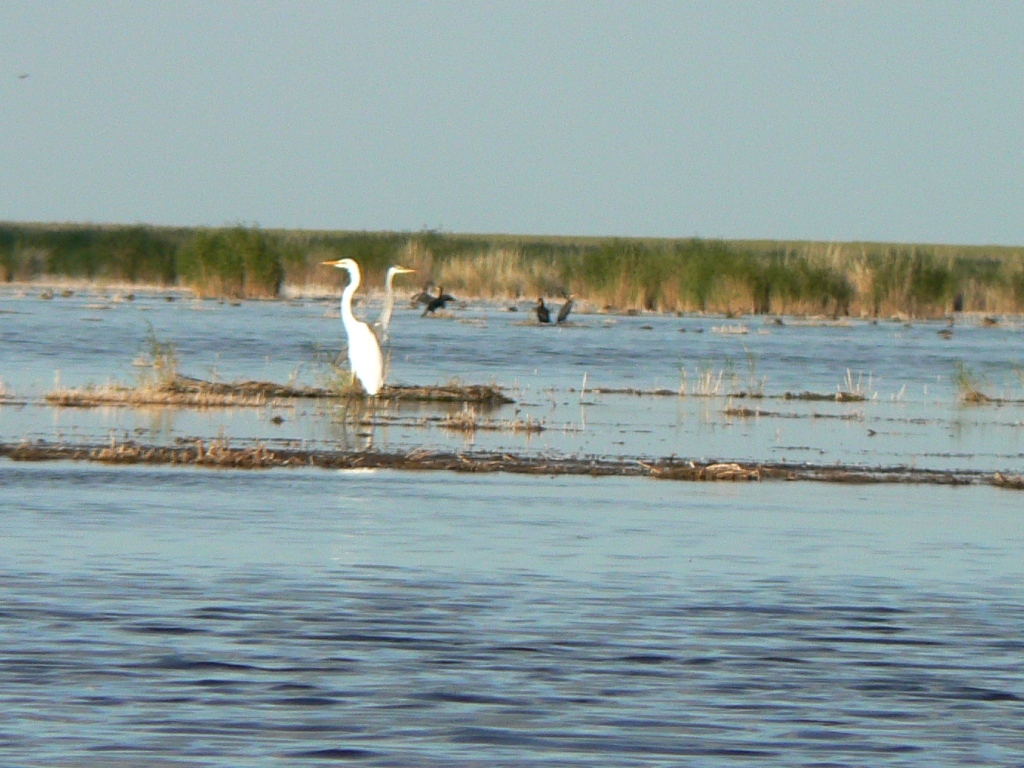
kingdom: Animalia
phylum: Chordata
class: Aves
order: Pelecaniformes
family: Ardeidae
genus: Ardea
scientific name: Ardea alba
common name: Great egret
